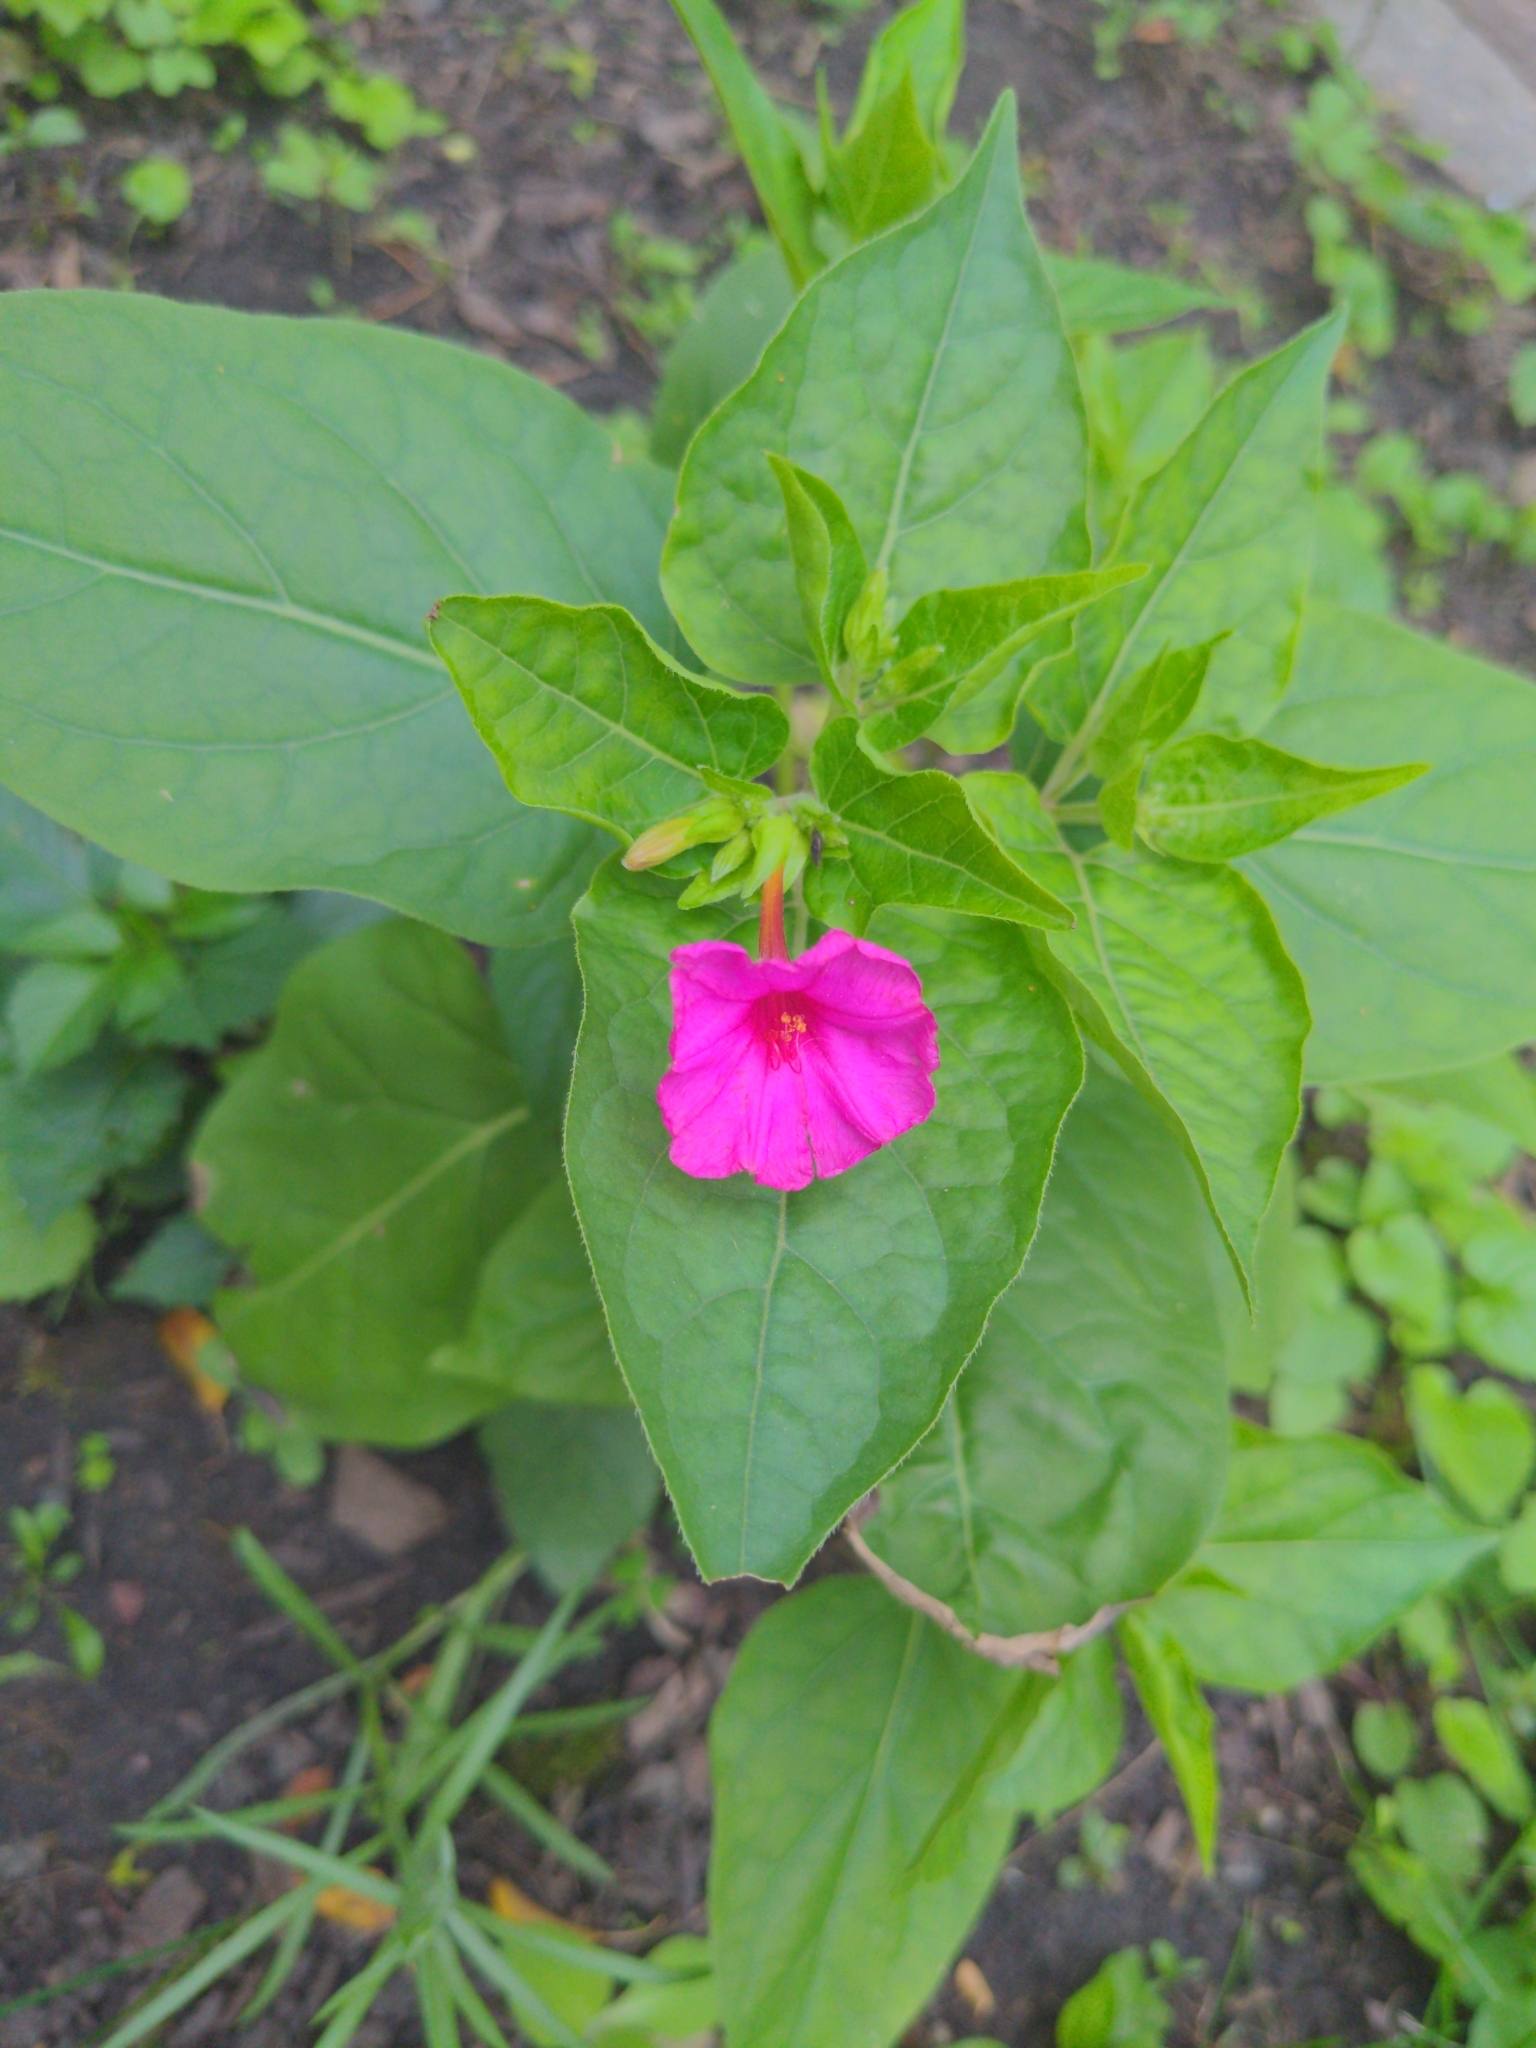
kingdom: Plantae
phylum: Tracheophyta
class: Magnoliopsida
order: Caryophyllales
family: Nyctaginaceae
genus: Mirabilis
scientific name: Mirabilis jalapa
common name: Marvel-of-peru
